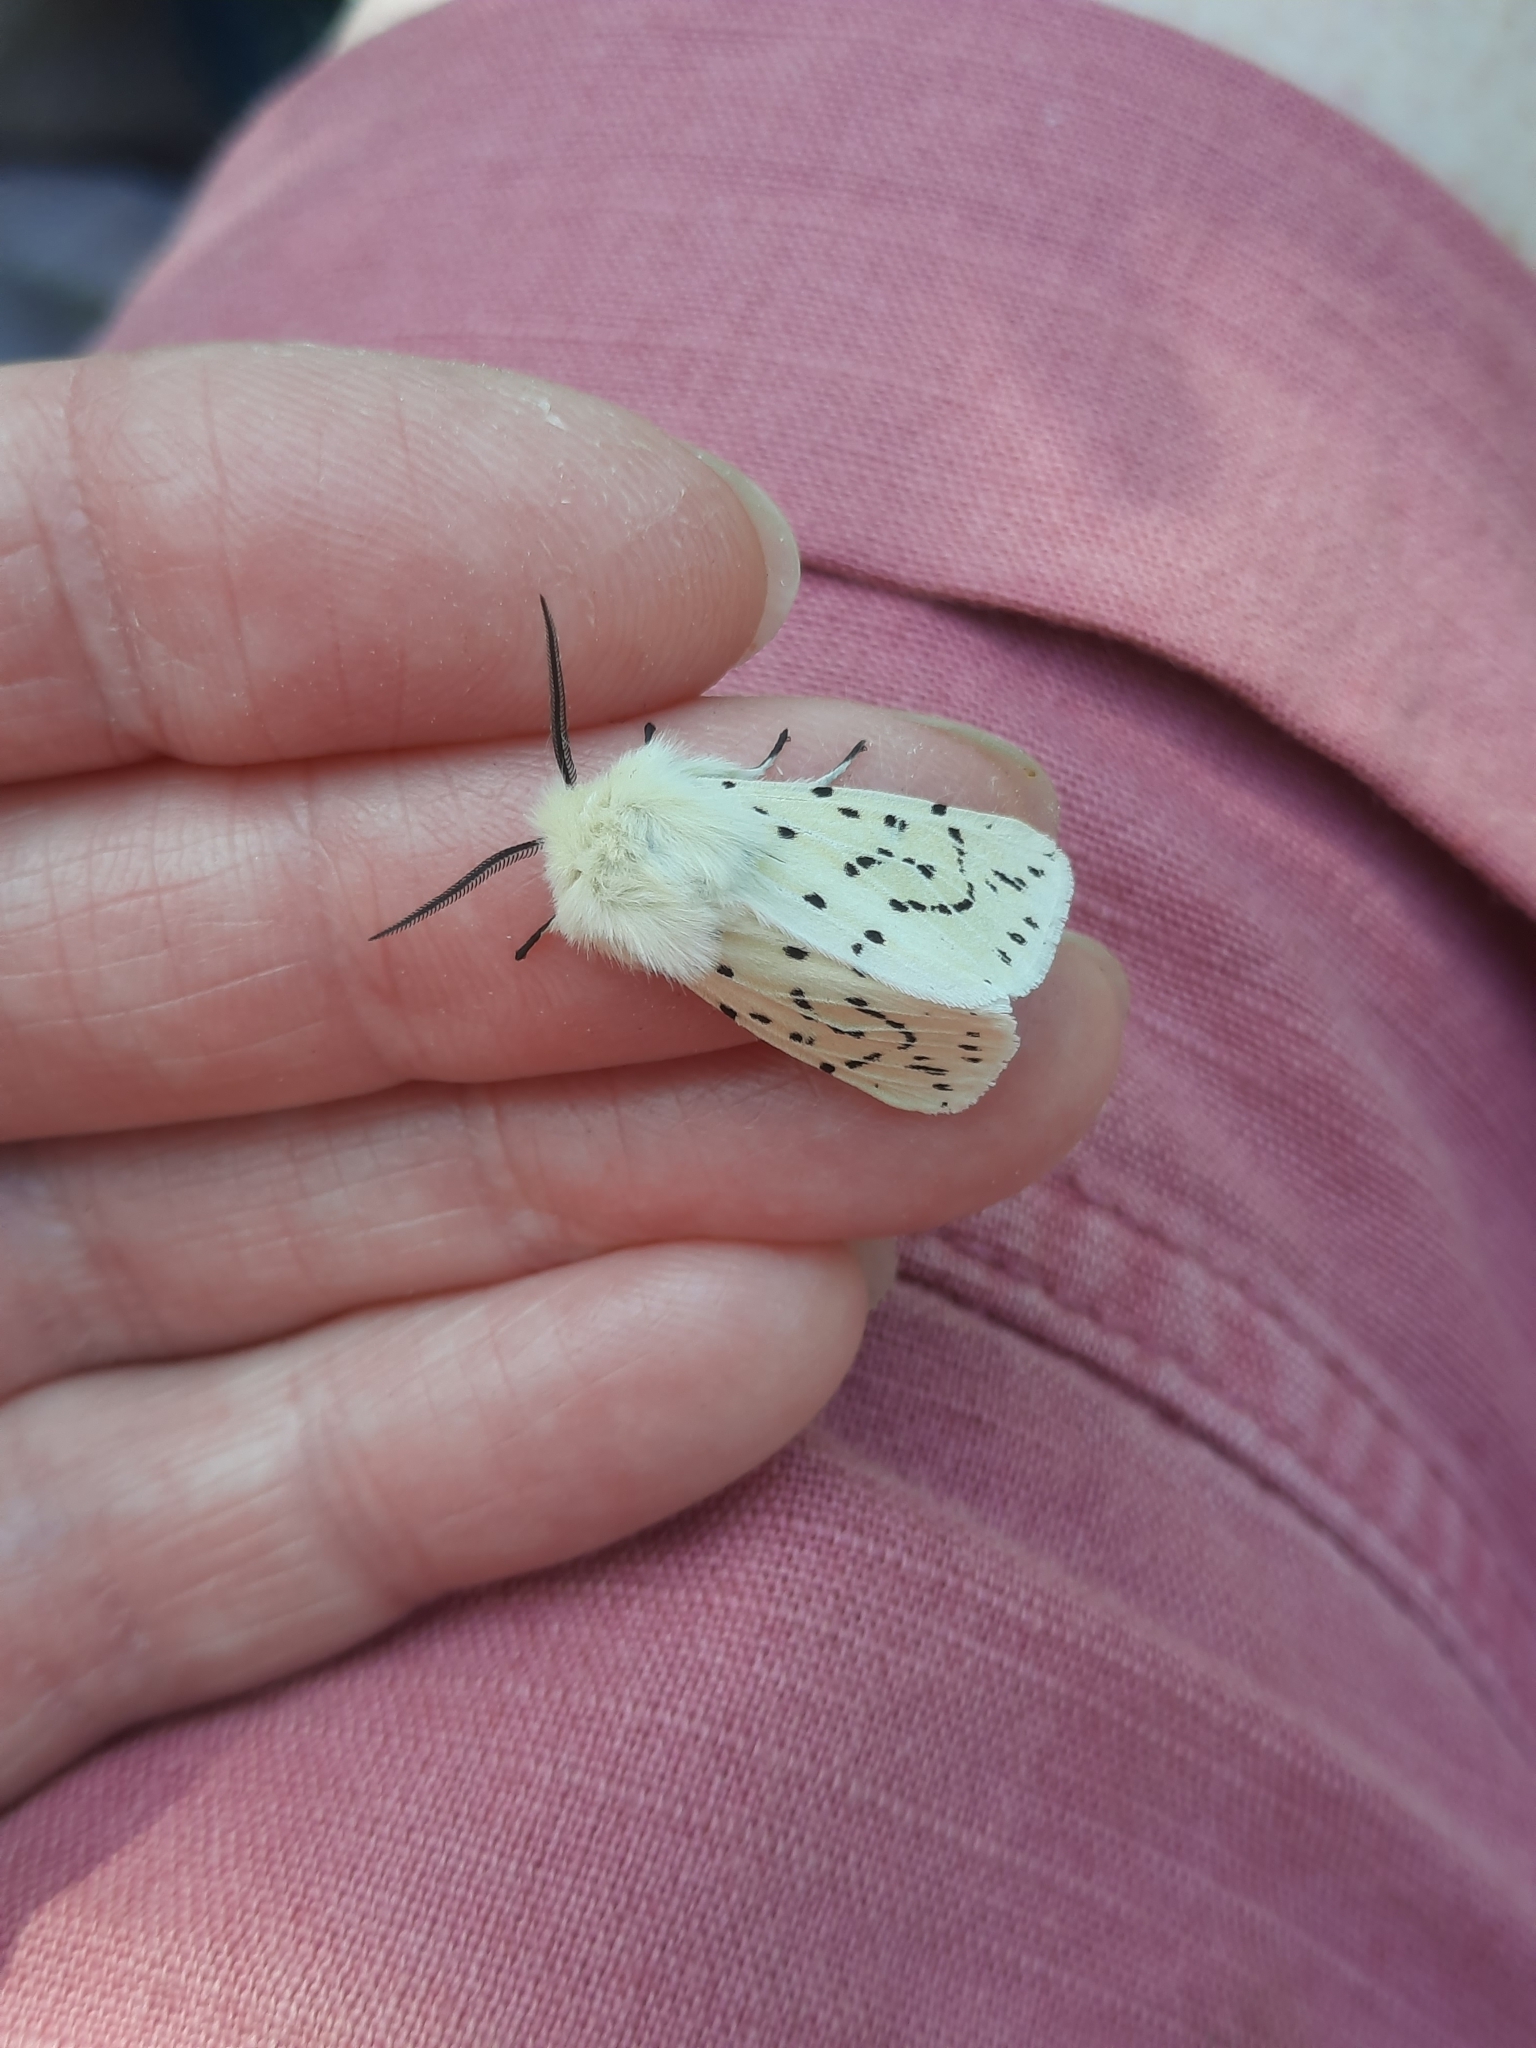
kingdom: Animalia
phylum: Arthropoda
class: Insecta
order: Lepidoptera
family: Erebidae
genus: Spilosoma
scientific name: Spilosoma lubricipeda
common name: White ermine
